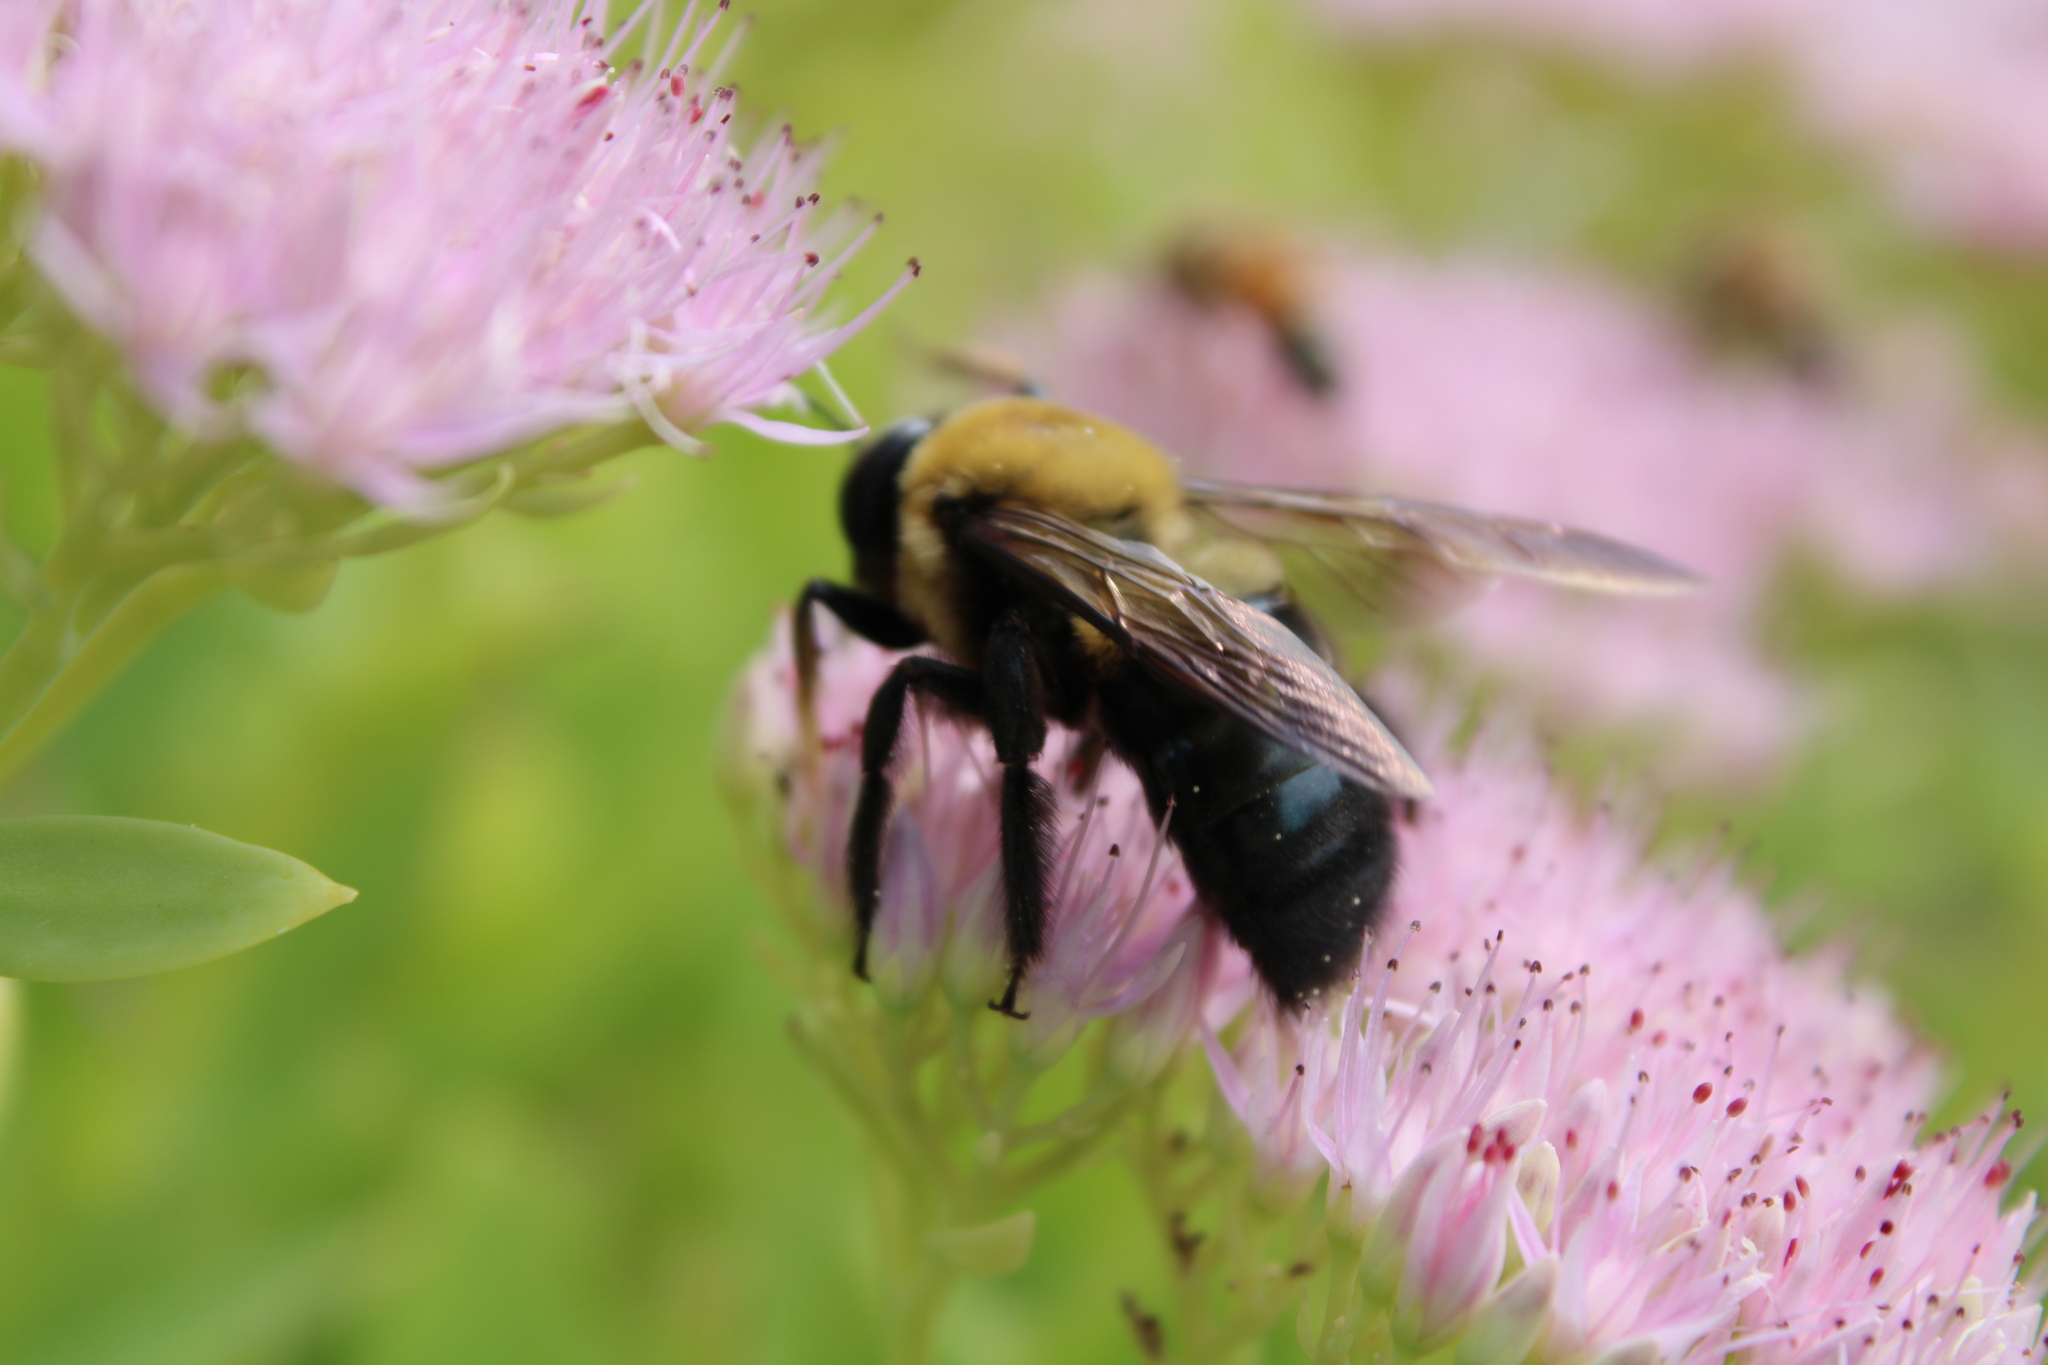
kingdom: Animalia
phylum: Arthropoda
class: Insecta
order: Hymenoptera
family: Apidae
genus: Xylocopa
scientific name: Xylocopa virginica
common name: Carpenter bee
